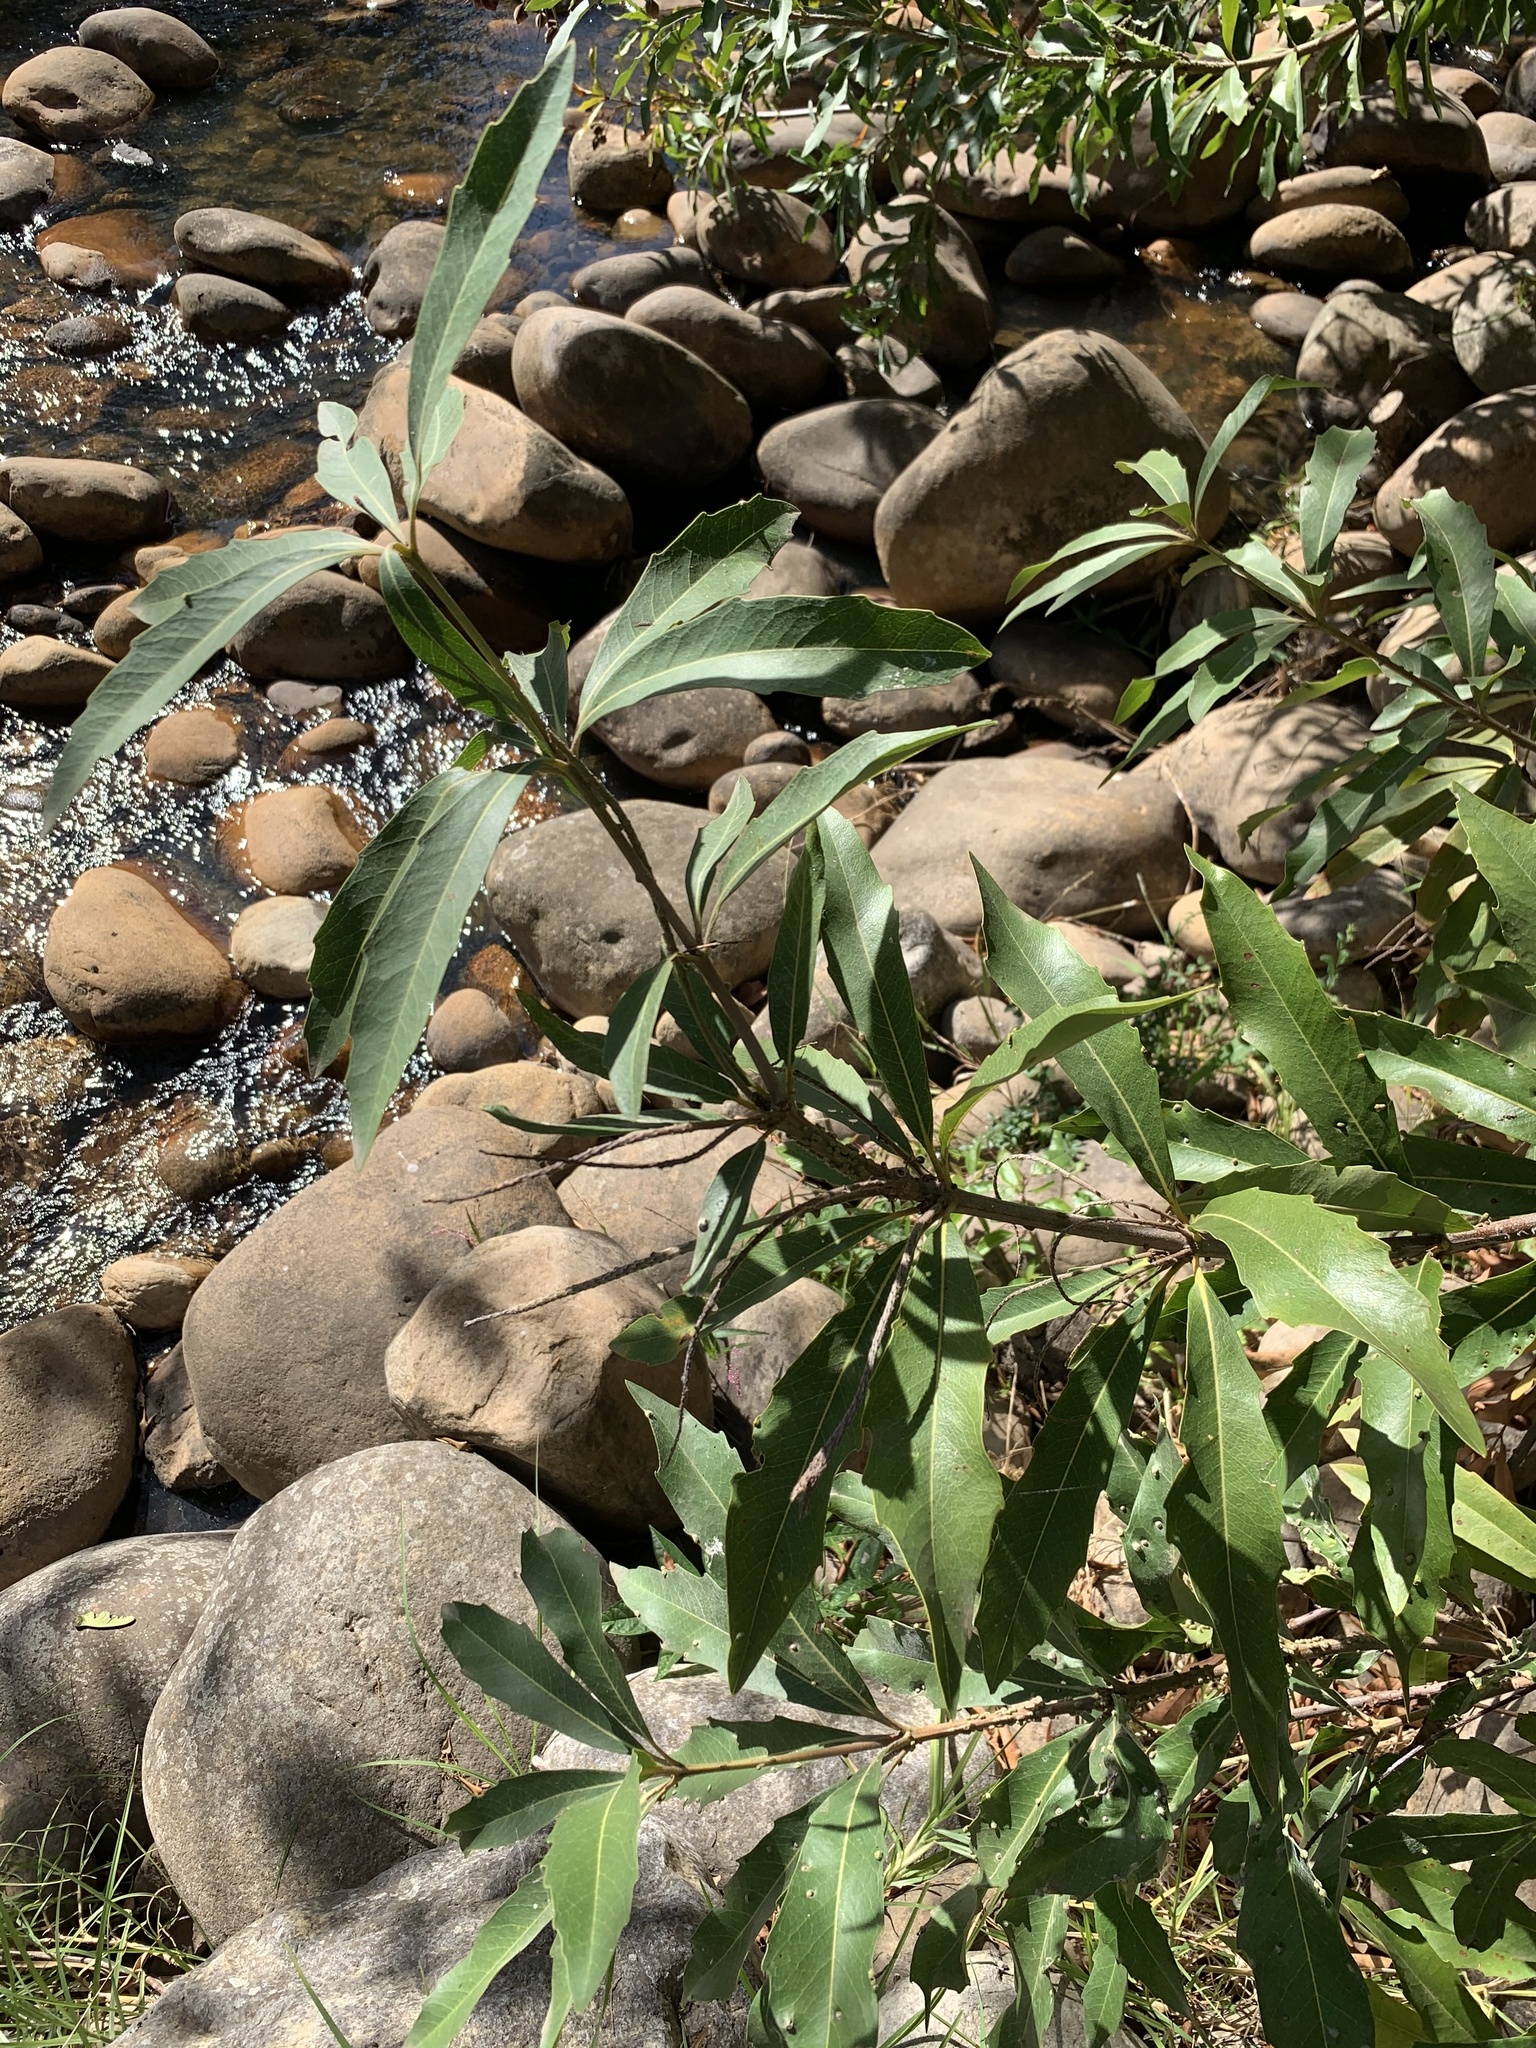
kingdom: Plantae
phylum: Tracheophyta
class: Magnoliopsida
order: Proteales
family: Proteaceae
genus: Brabejum
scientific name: Brabejum stellatifolium
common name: Wild almond
